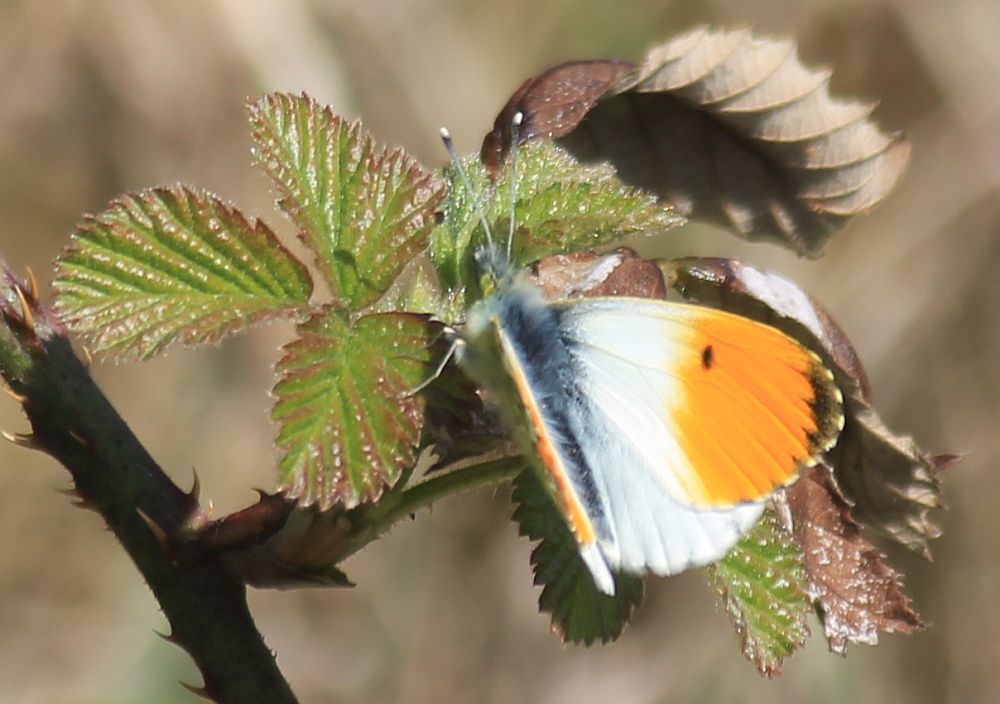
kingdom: Animalia
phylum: Arthropoda
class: Insecta
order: Lepidoptera
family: Pieridae
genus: Anthocharis
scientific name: Anthocharis cardamines
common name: Orange-tip
